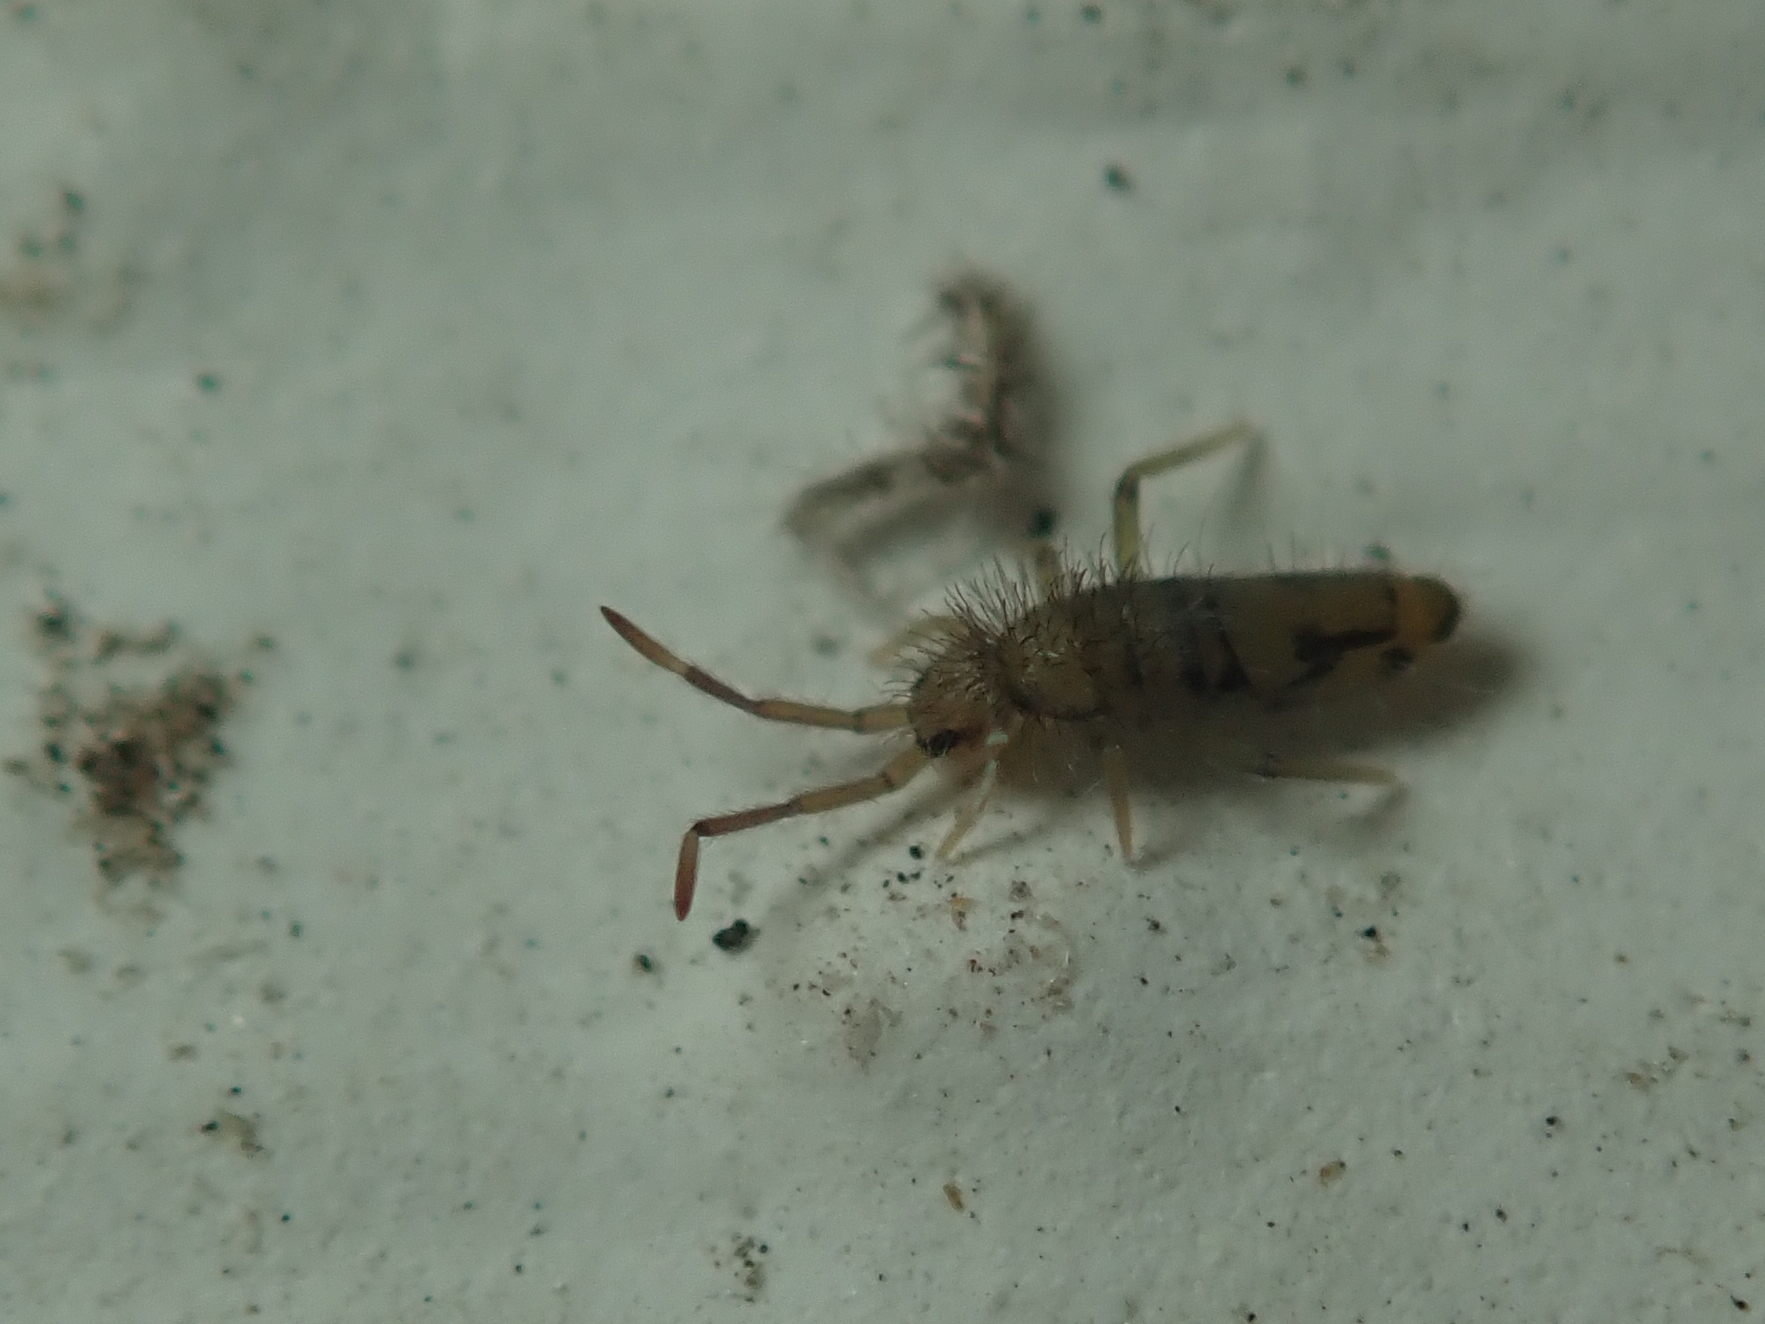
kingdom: Animalia
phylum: Arthropoda
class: Collembola
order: Entomobryomorpha
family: Entomobryidae
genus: Entomobrya
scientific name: Entomobrya nivalis
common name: Cosmopolitan springtail
